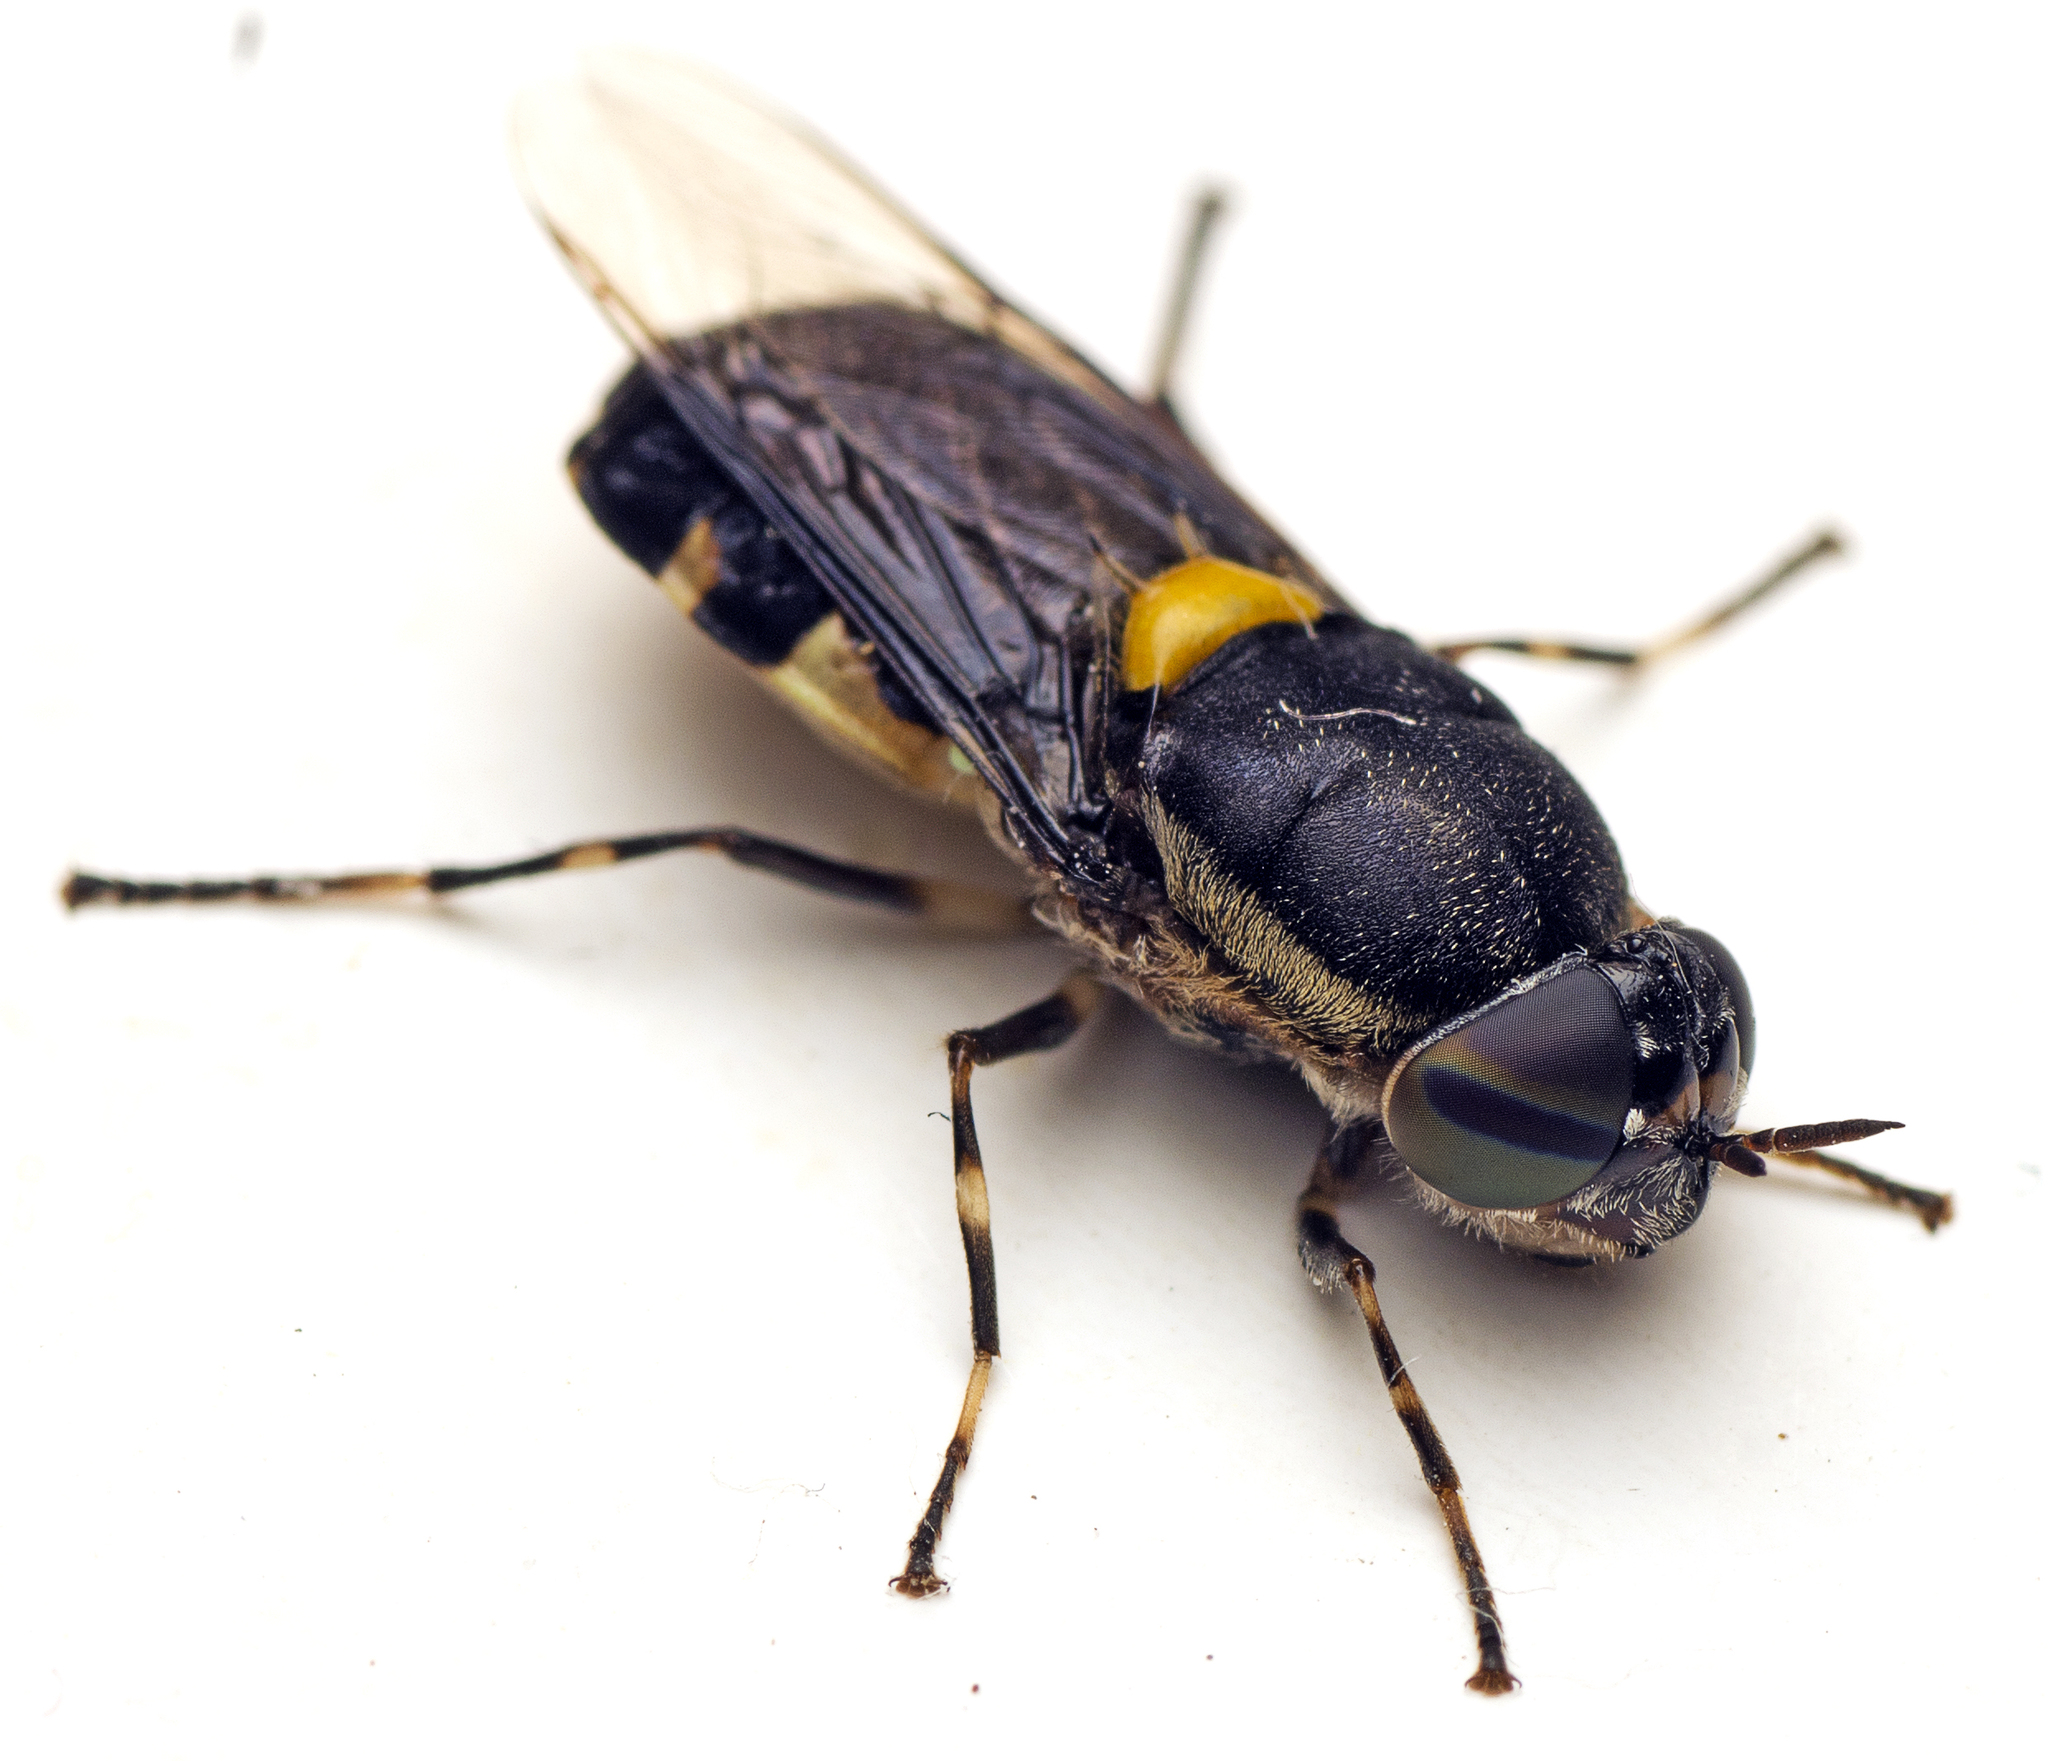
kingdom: Animalia
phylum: Arthropoda
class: Insecta
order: Diptera
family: Stratiomyidae
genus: Odontomyia
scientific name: Odontomyia hunteri
